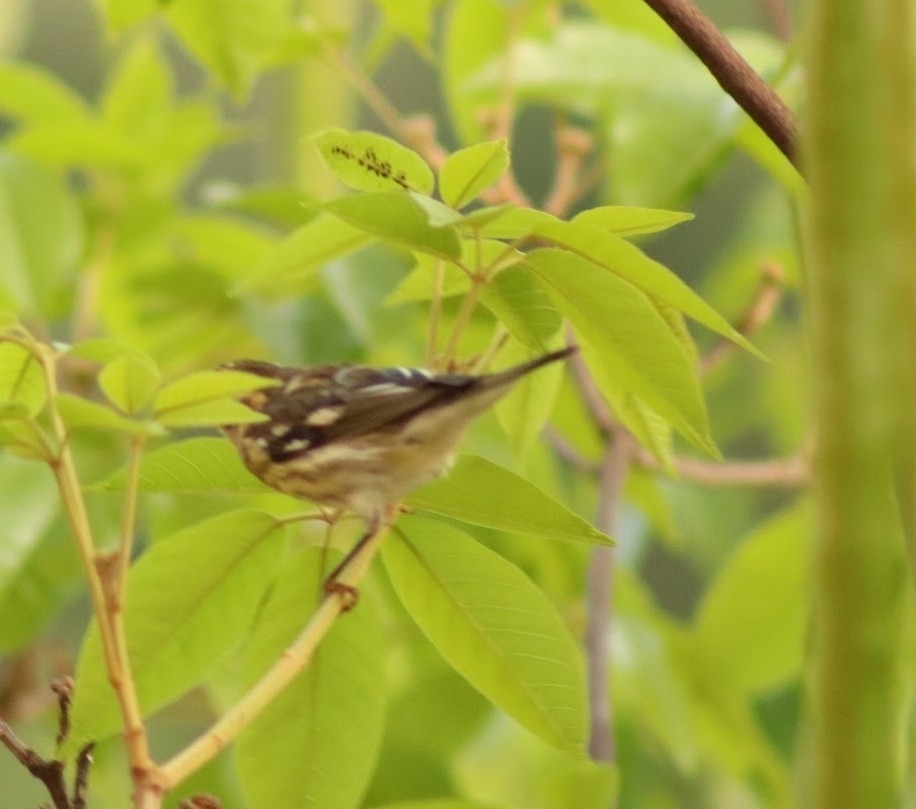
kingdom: Animalia
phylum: Chordata
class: Aves
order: Passeriformes
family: Parulidae
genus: Setophaga
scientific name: Setophaga fusca
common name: Blackburnian warbler
